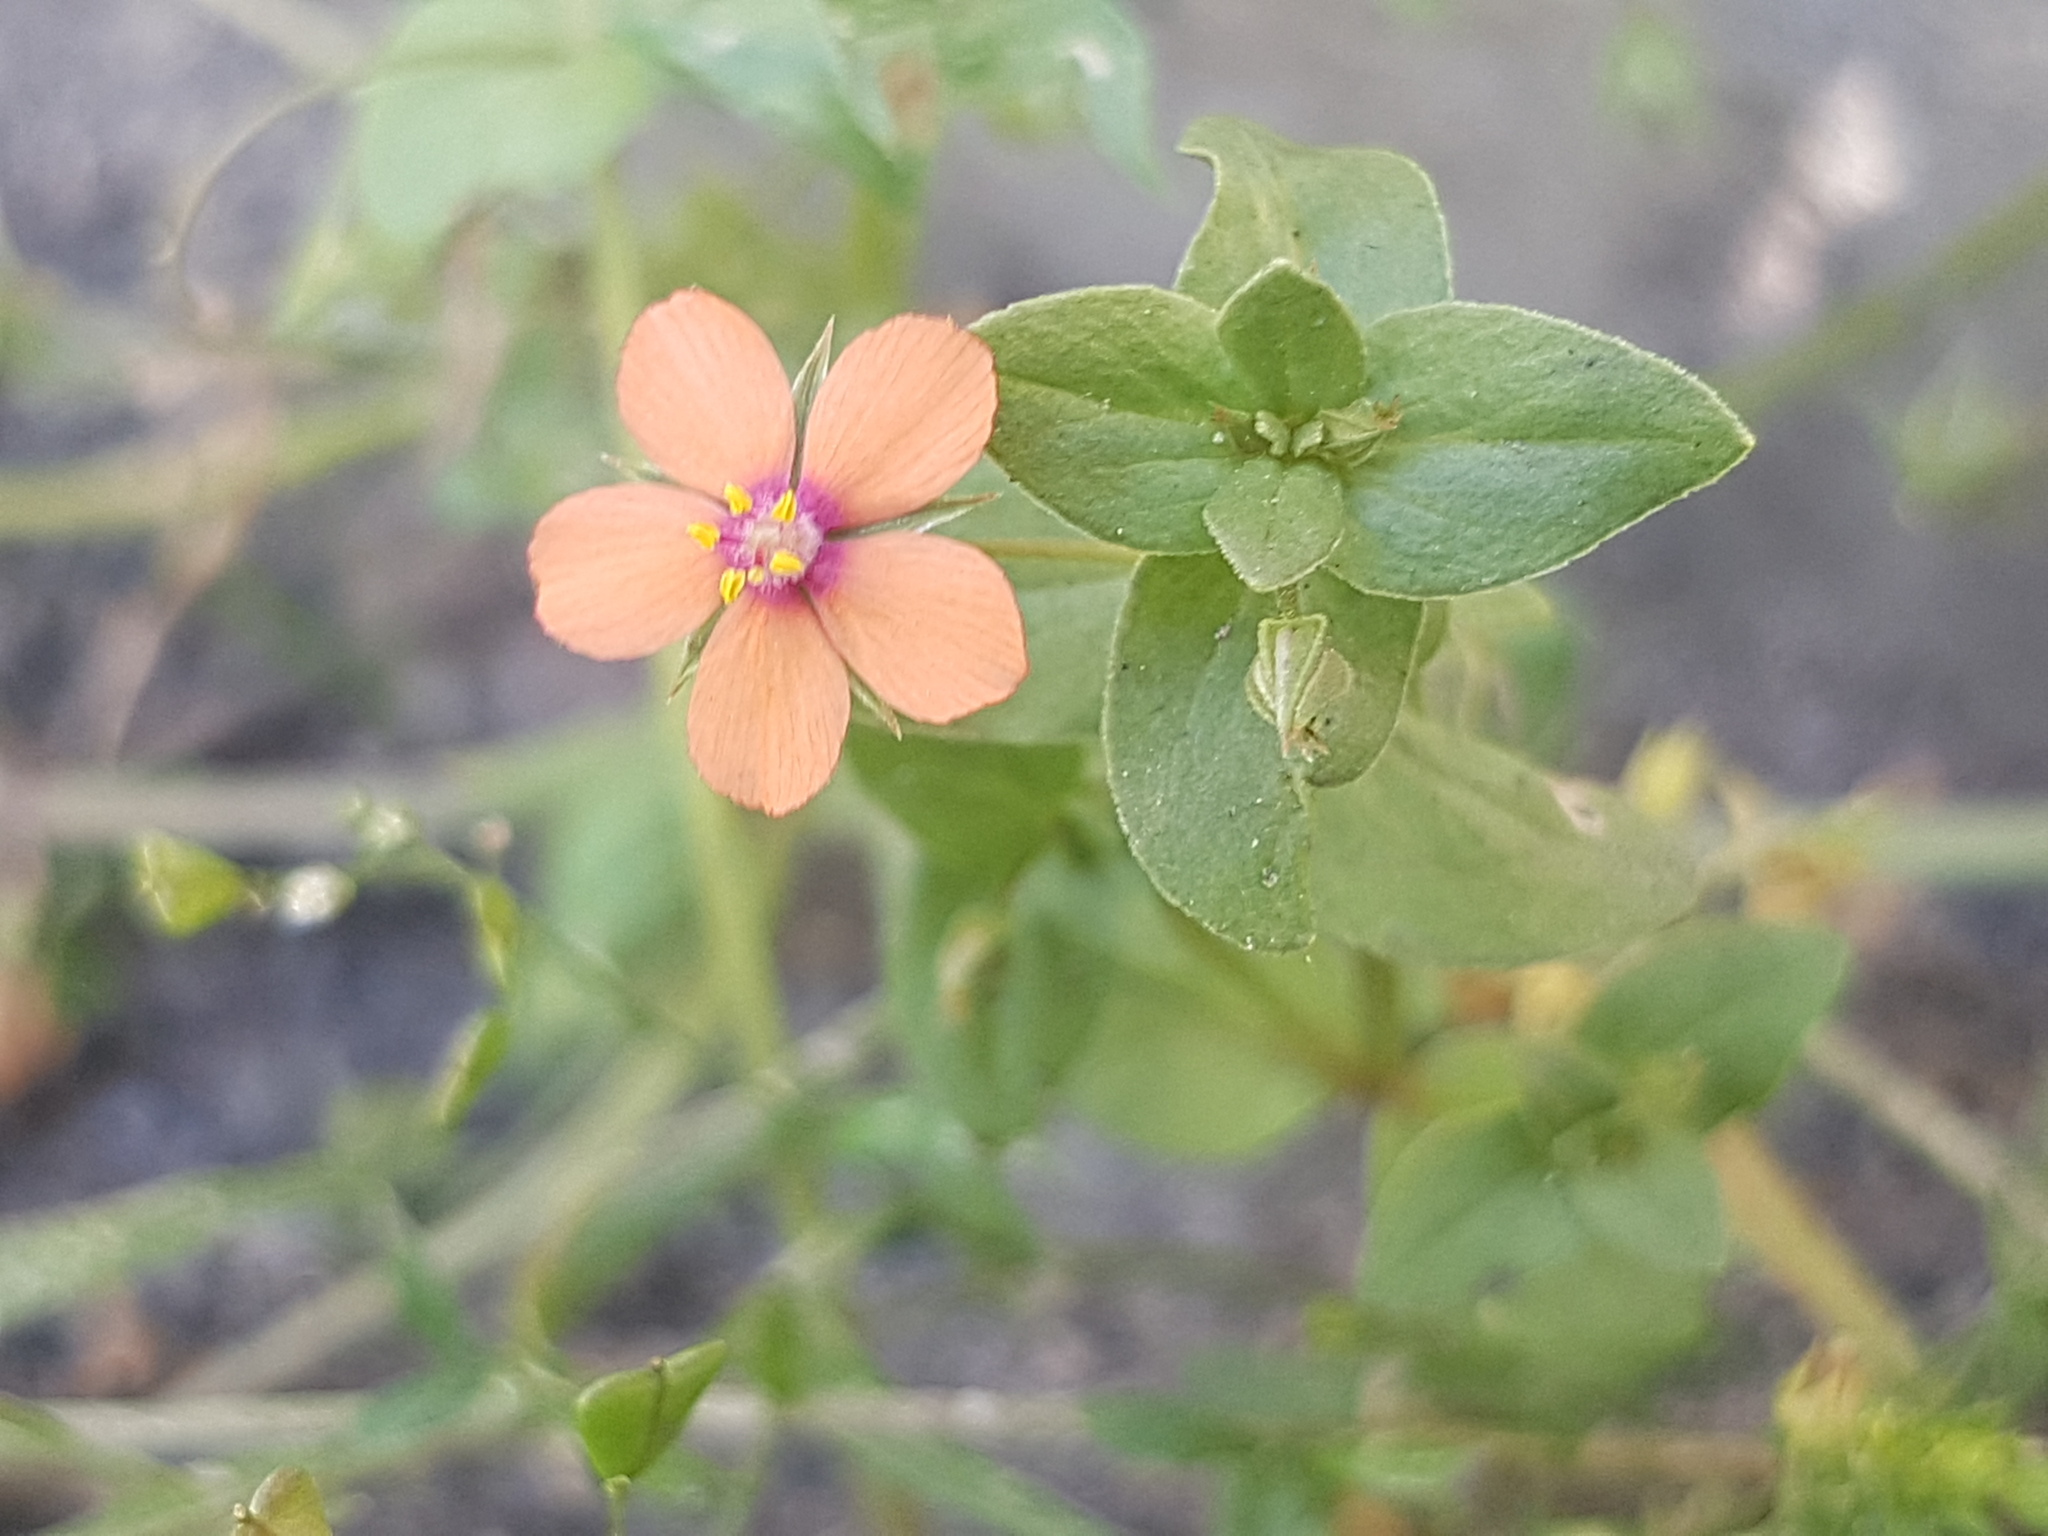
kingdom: Plantae
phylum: Tracheophyta
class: Magnoliopsida
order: Ericales
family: Primulaceae
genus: Lysimachia
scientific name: Lysimachia arvensis
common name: Scarlet pimpernel
